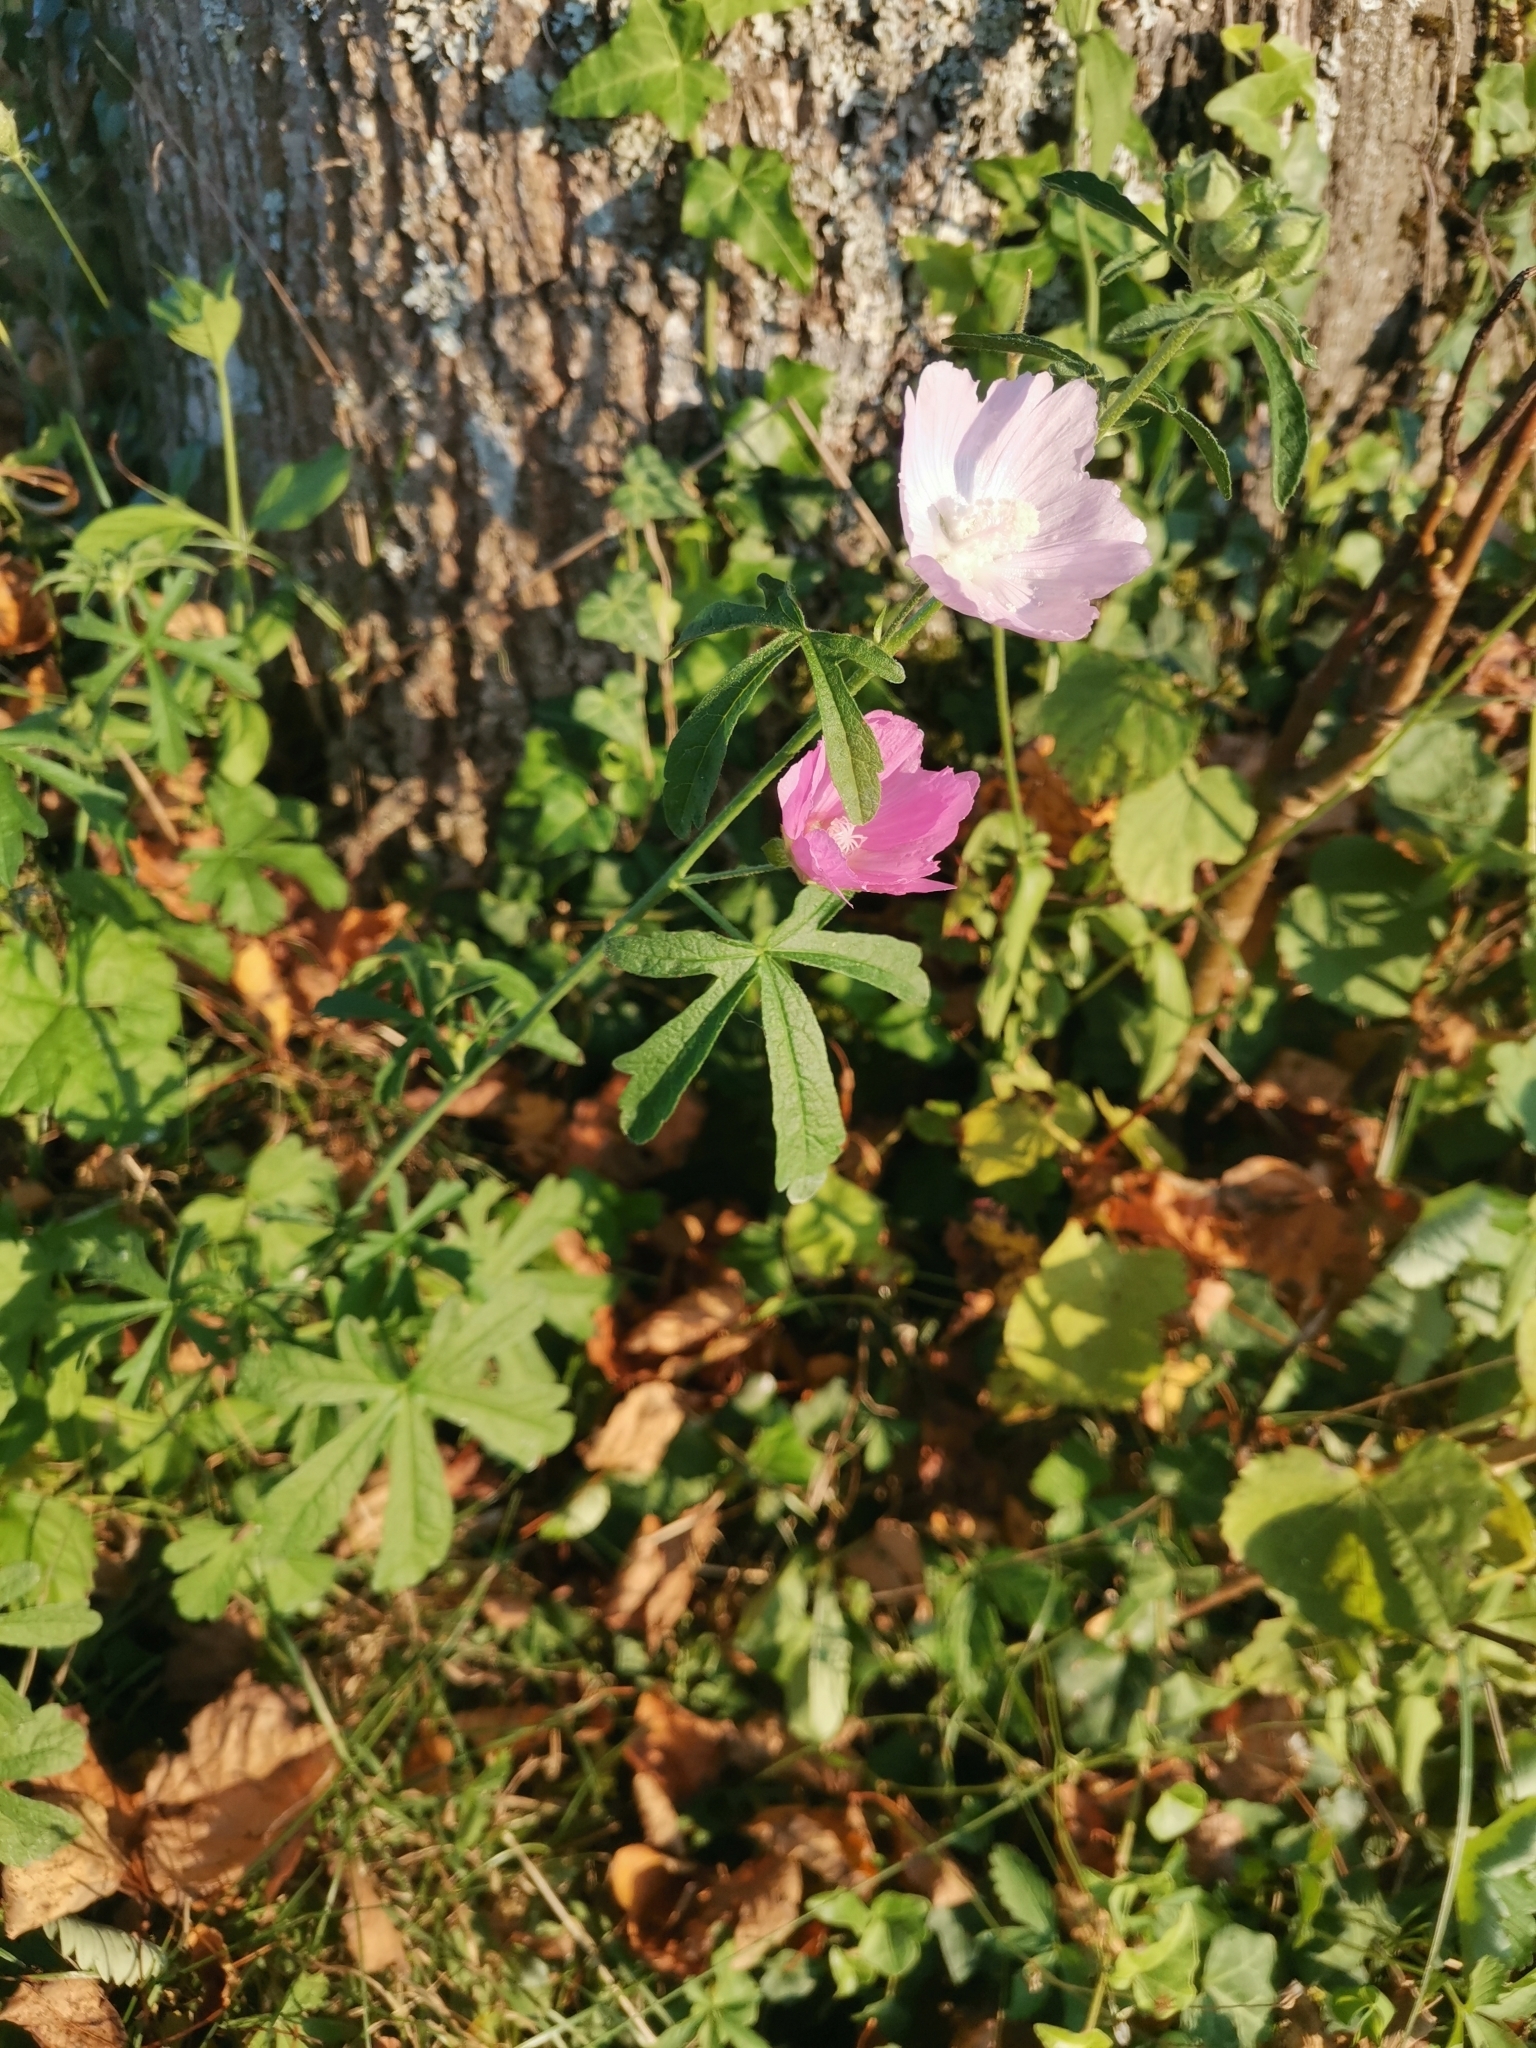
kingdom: Plantae
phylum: Tracheophyta
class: Magnoliopsida
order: Malvales
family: Malvaceae
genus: Malva
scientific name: Malva alcea
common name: Greater musk-mallow
